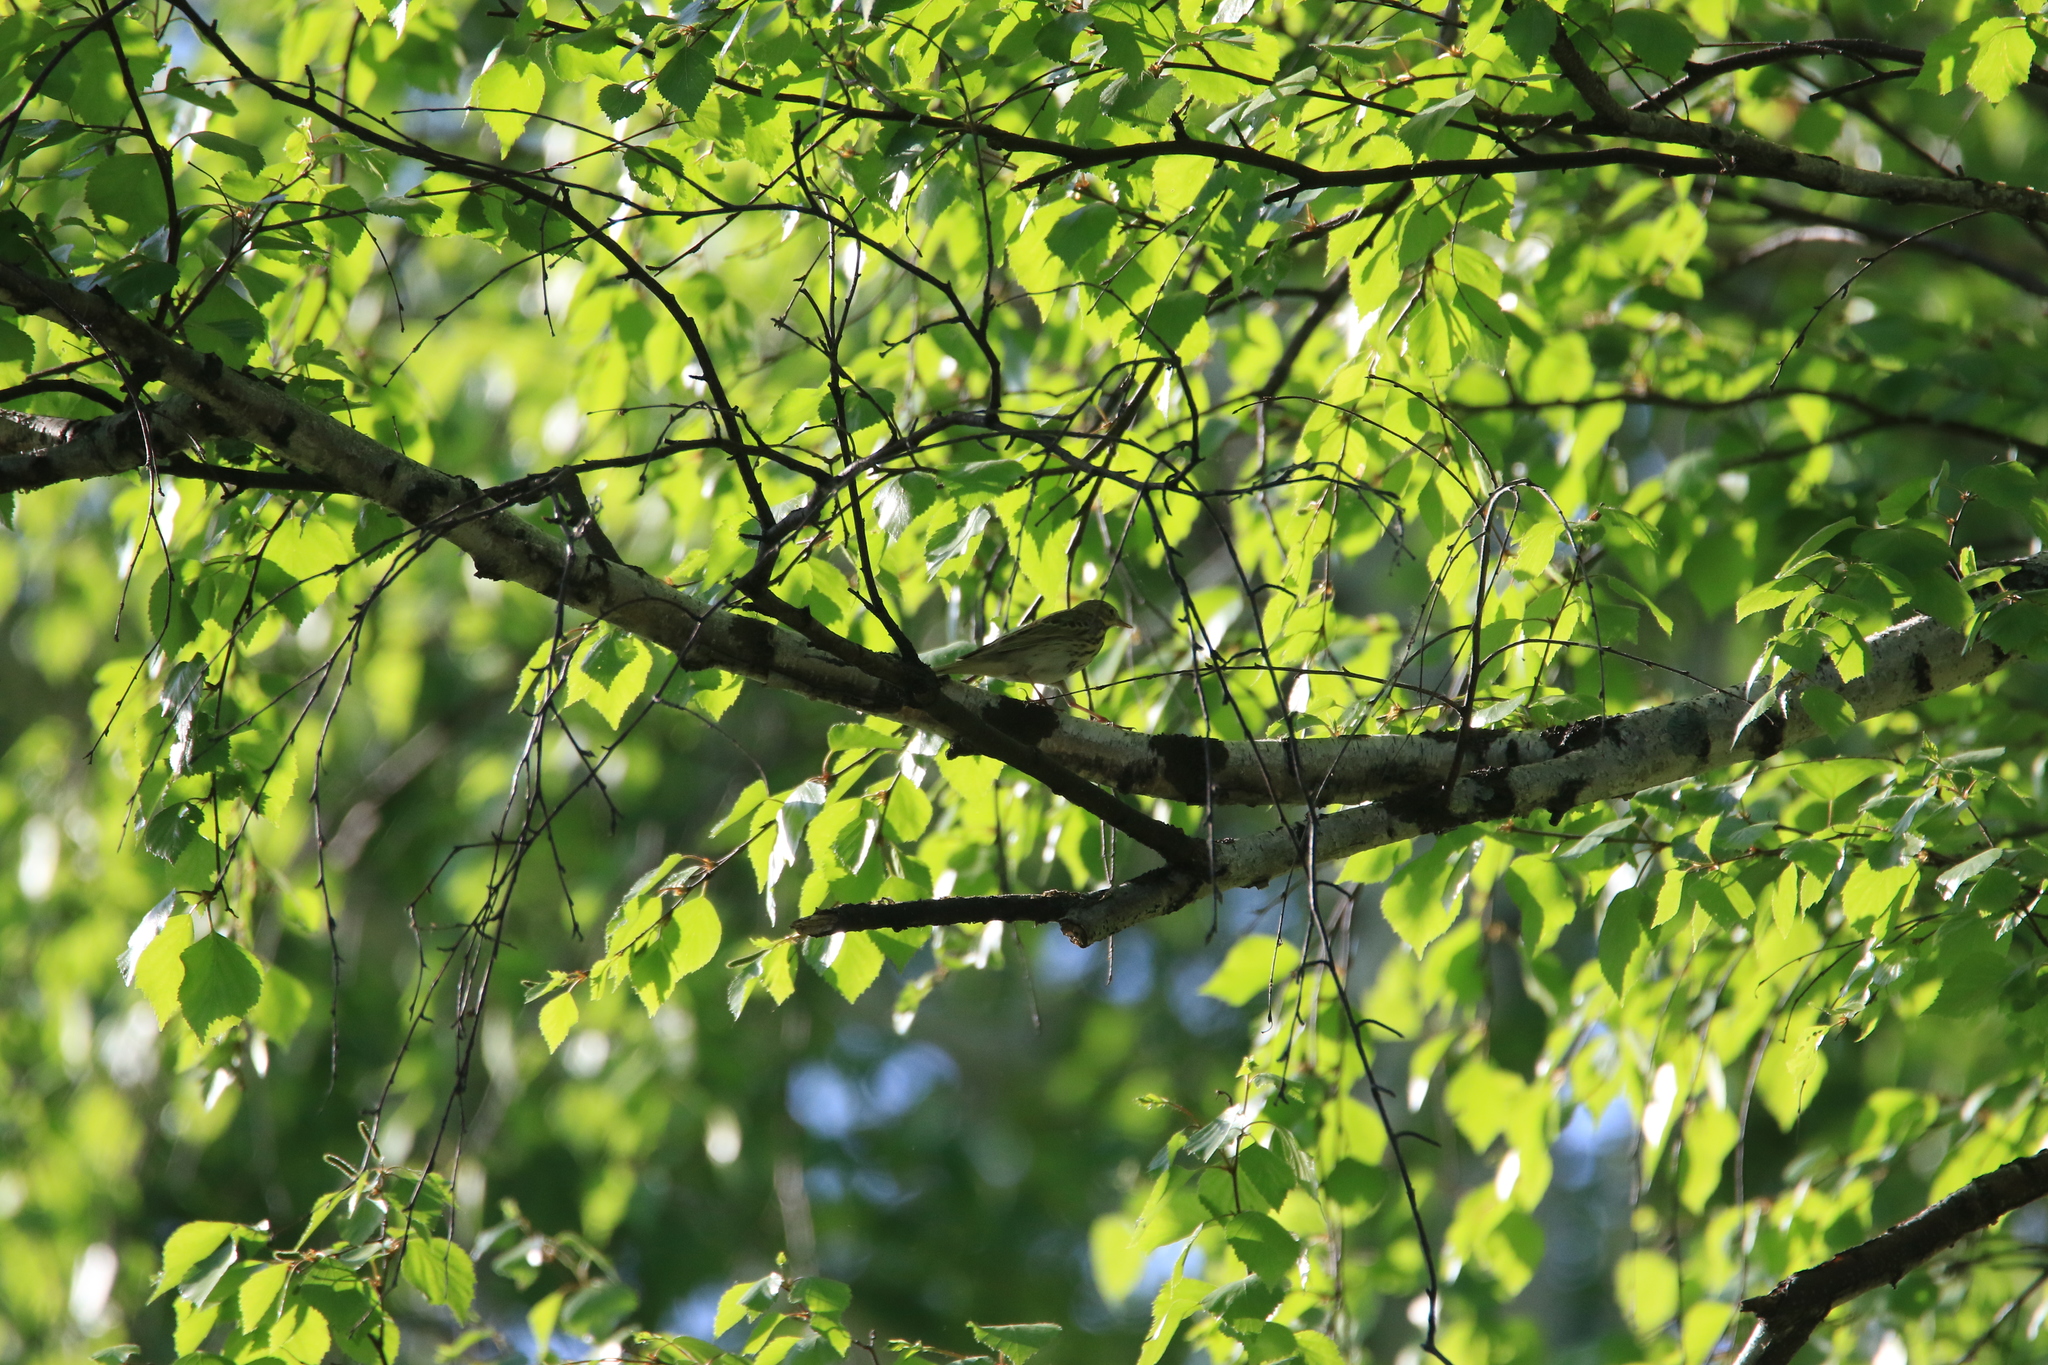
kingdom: Animalia
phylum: Chordata
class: Aves
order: Passeriformes
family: Motacillidae
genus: Anthus
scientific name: Anthus trivialis
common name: Tree pipit
